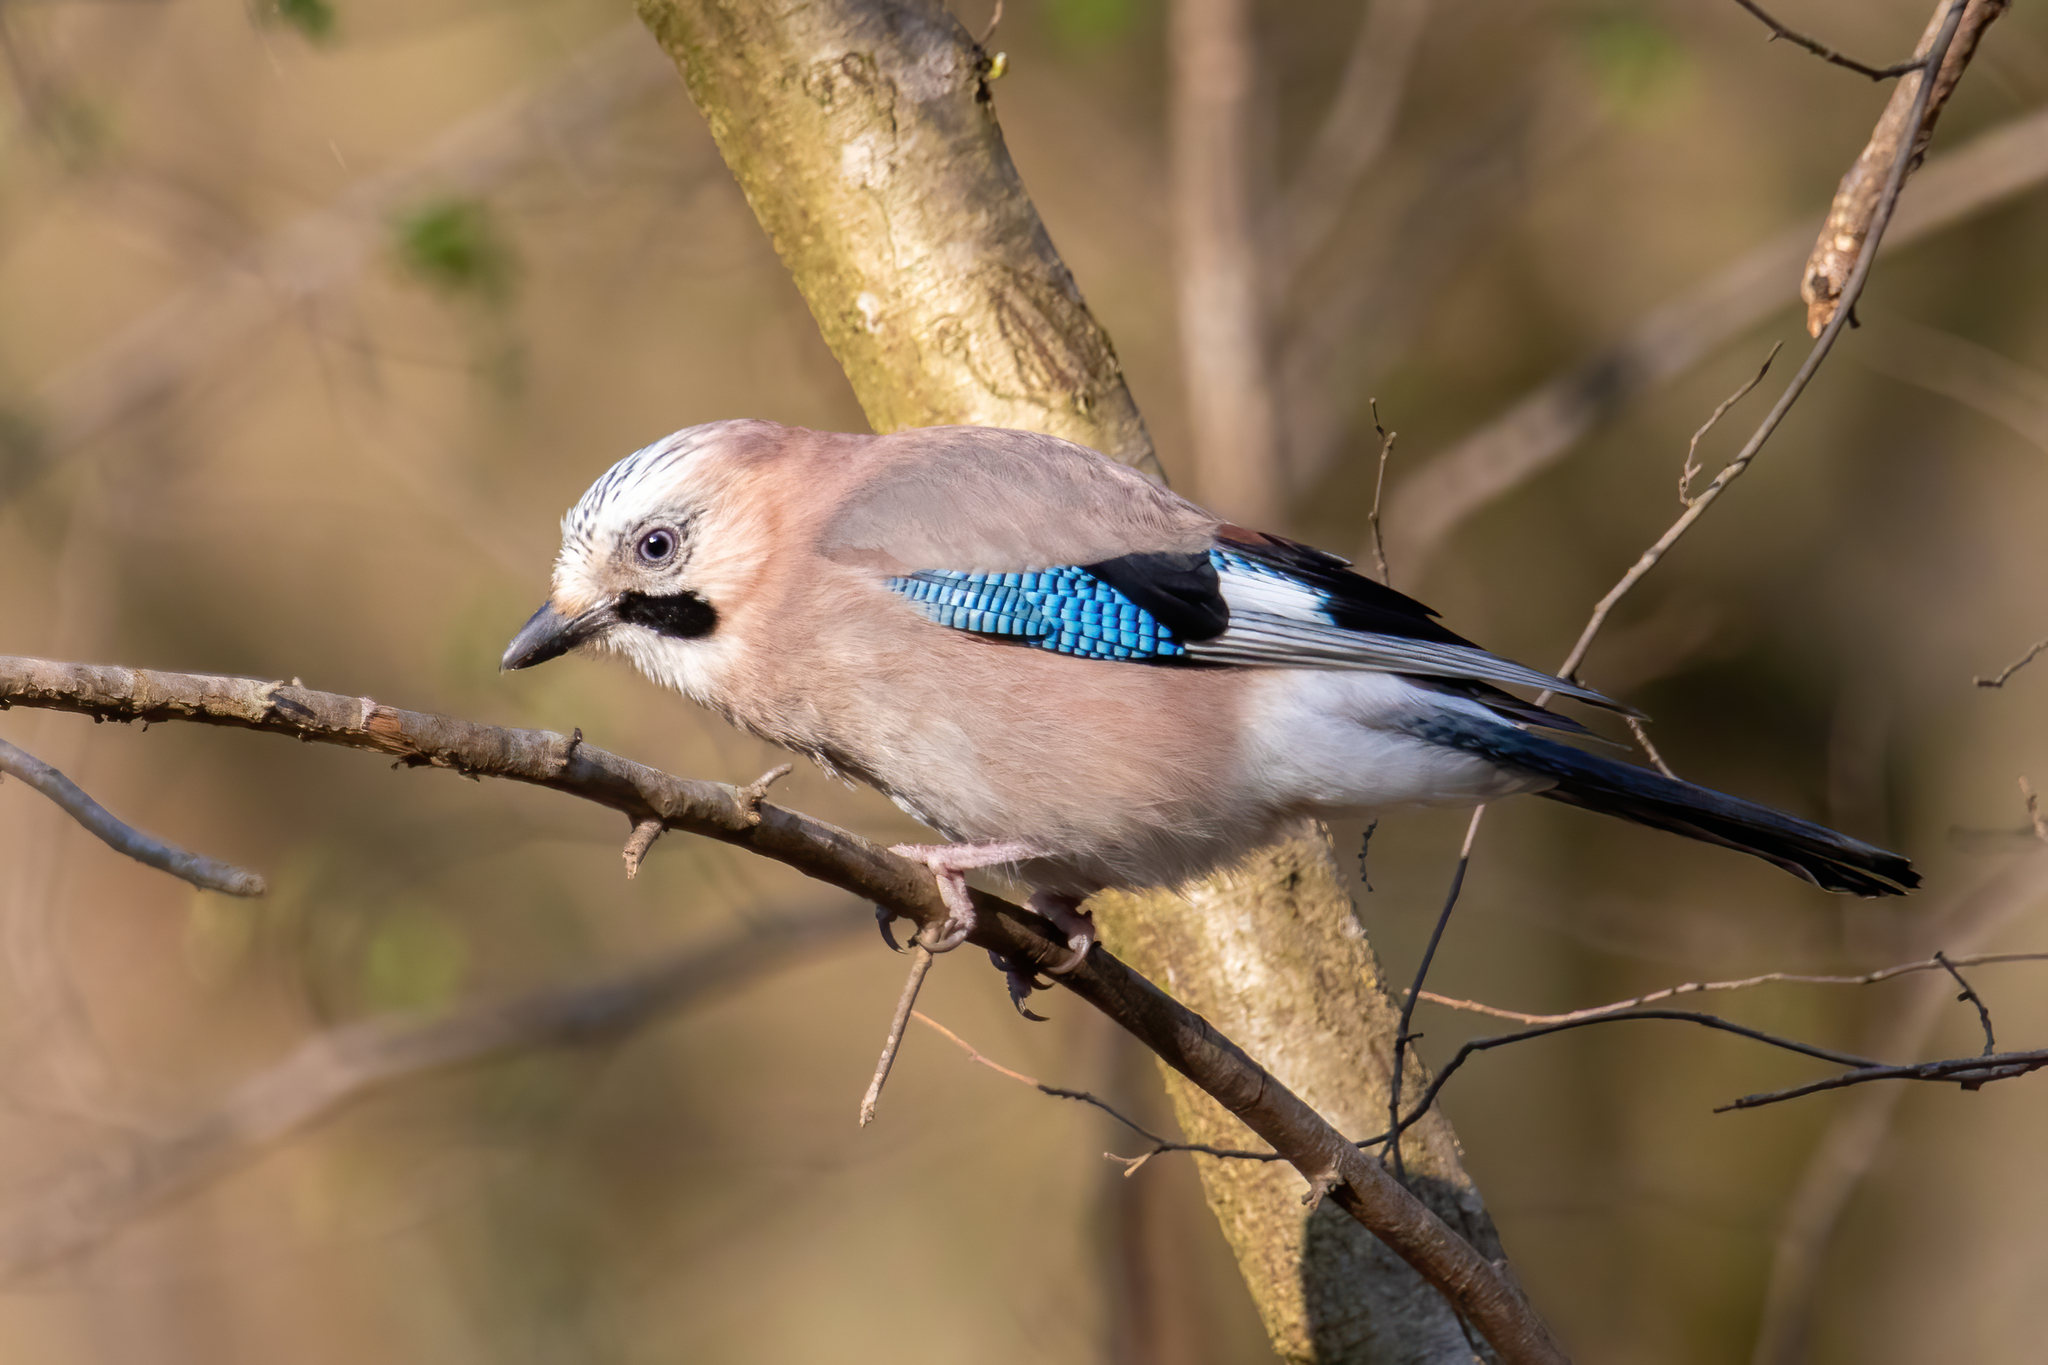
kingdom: Animalia
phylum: Chordata
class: Aves
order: Passeriformes
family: Corvidae
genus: Garrulus
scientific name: Garrulus glandarius
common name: Eurasian jay
